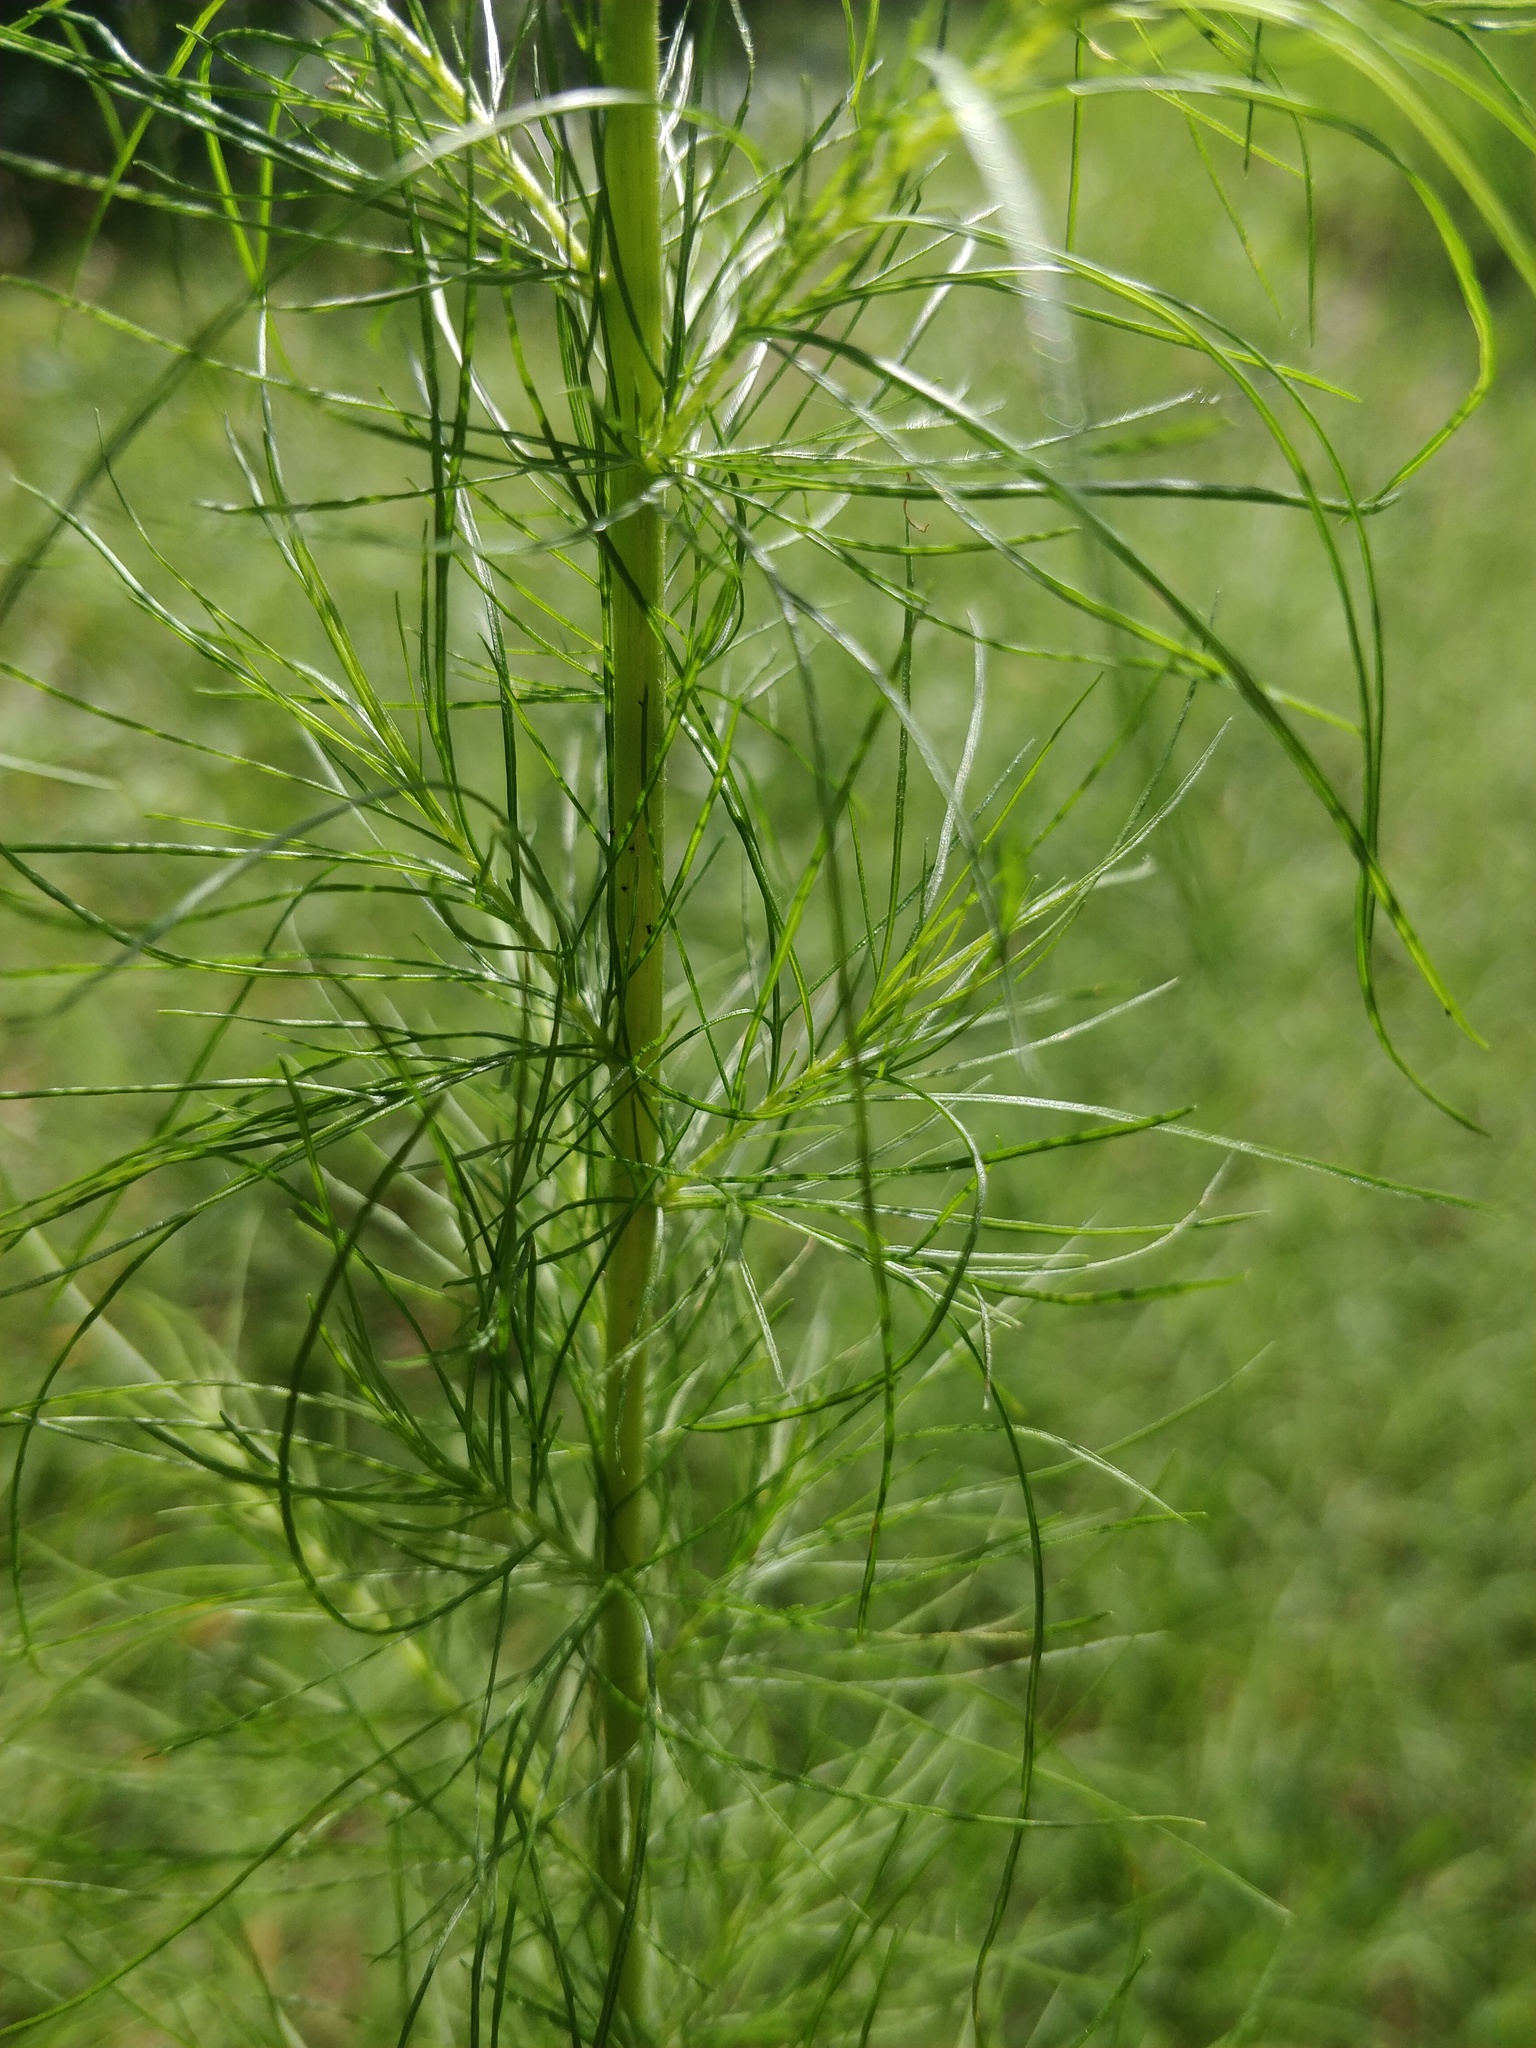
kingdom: Plantae
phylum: Tracheophyta
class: Magnoliopsida
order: Asterales
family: Asteraceae
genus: Eupatorium
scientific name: Eupatorium capillifolium
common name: Dog-fennel
